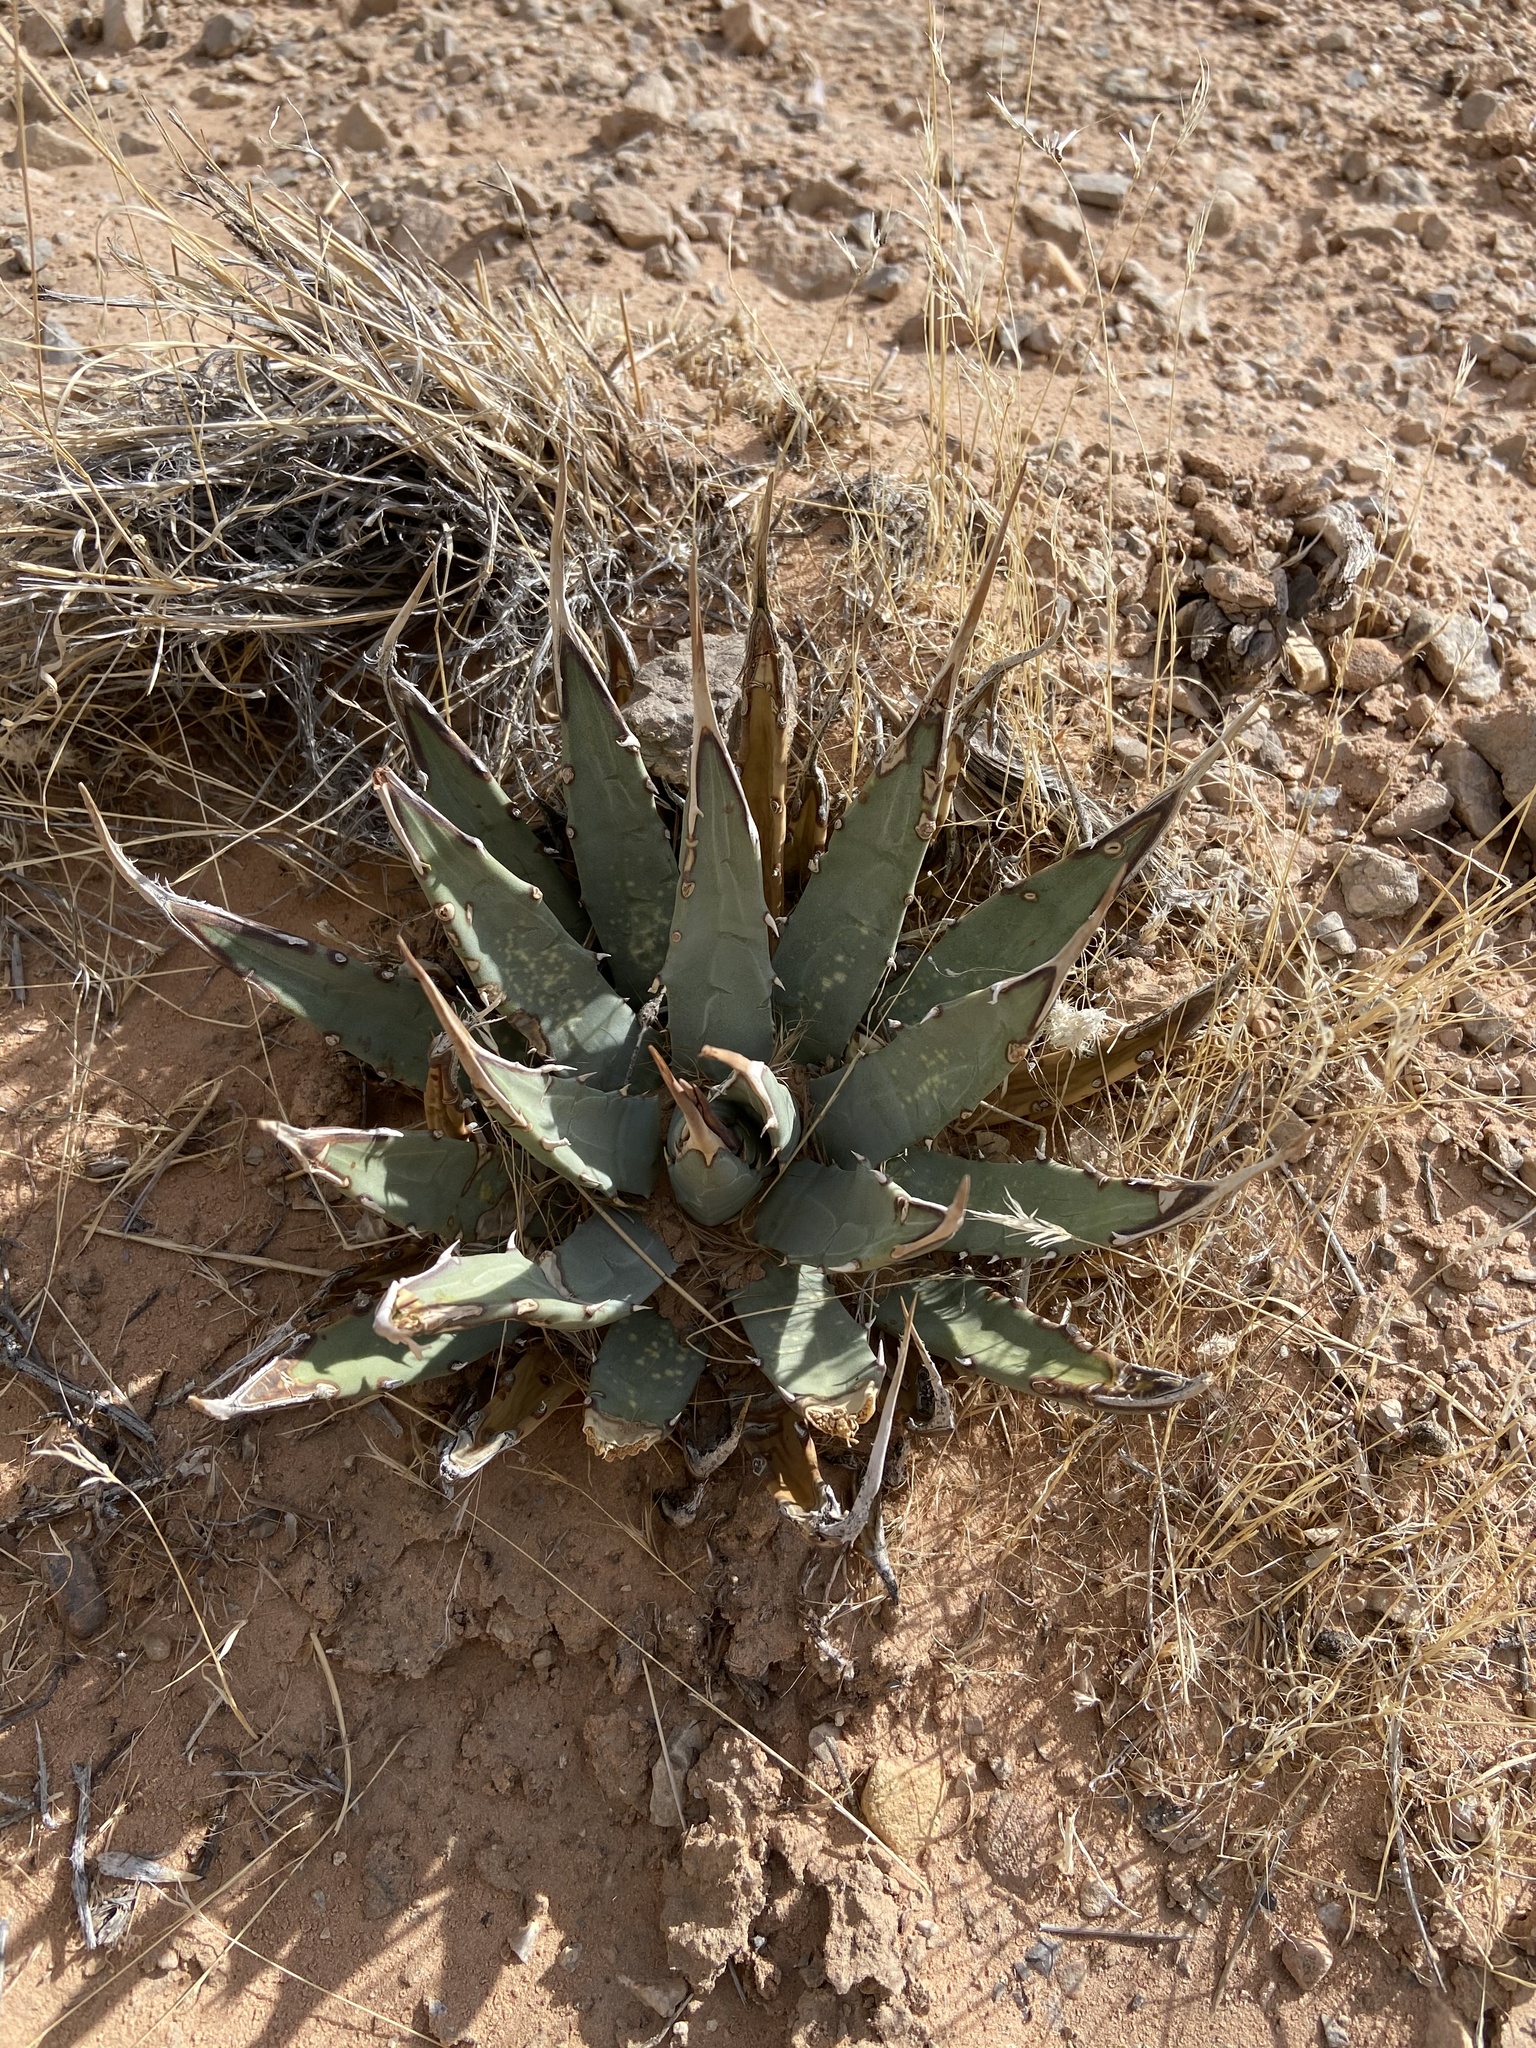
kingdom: Plantae
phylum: Tracheophyta
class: Liliopsida
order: Asparagales
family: Asparagaceae
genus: Agave
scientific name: Agave utahensis
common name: Utah agave
